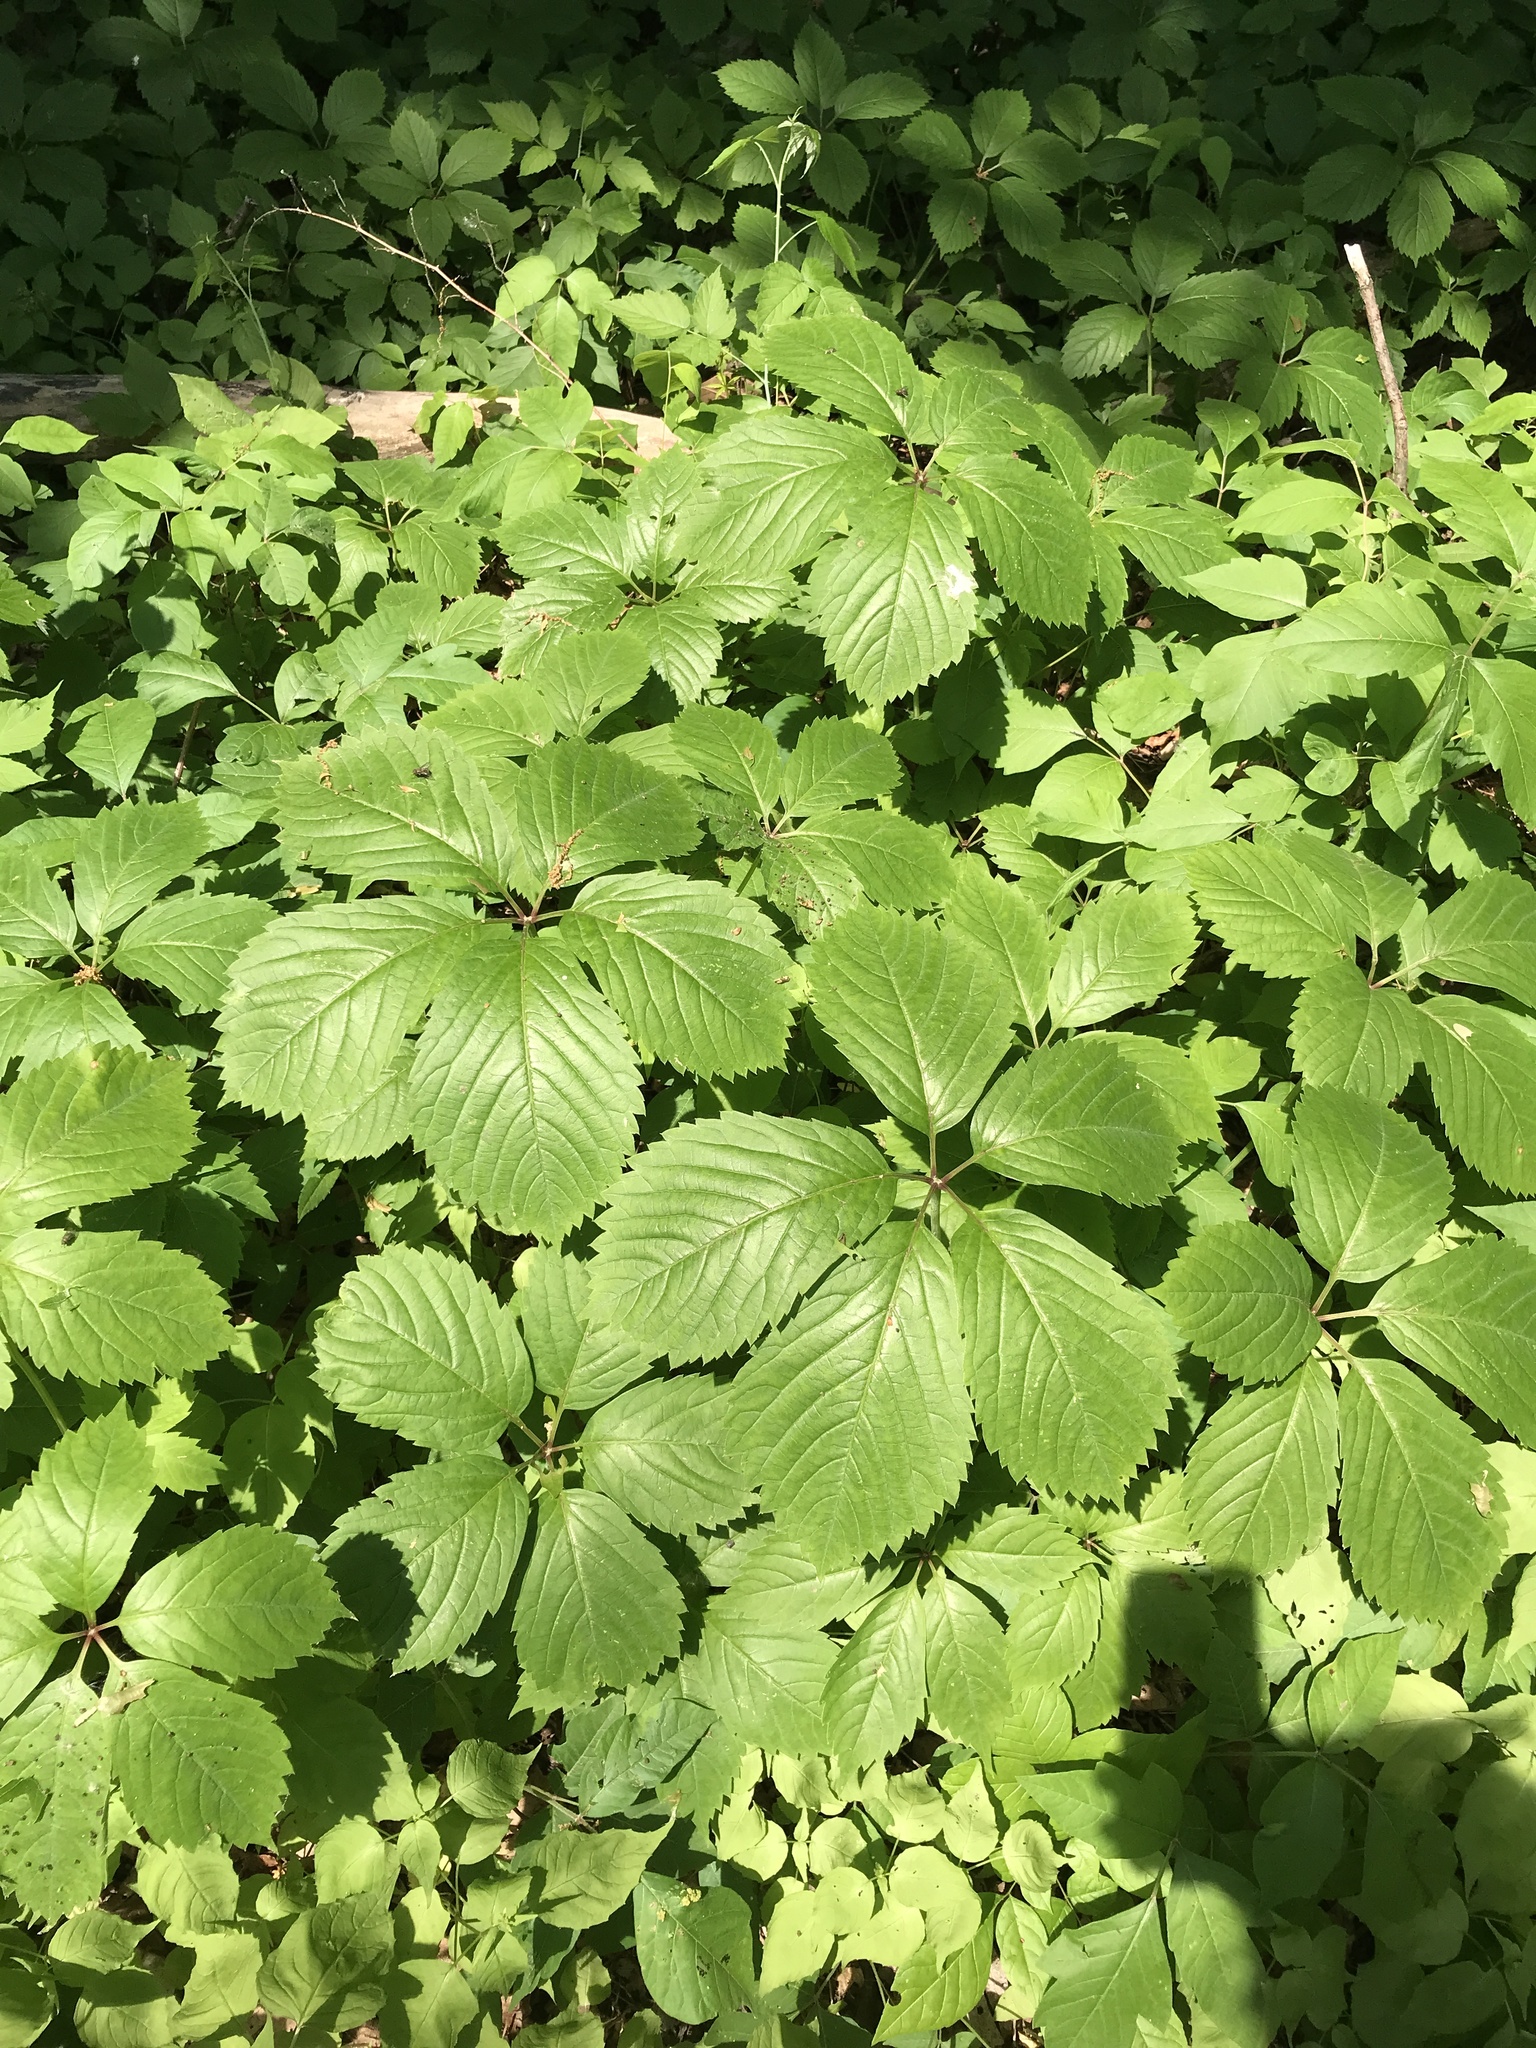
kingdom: Plantae
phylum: Tracheophyta
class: Magnoliopsida
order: Vitales
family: Vitaceae
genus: Parthenocissus
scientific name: Parthenocissus quinquefolia
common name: Virginia-creeper
